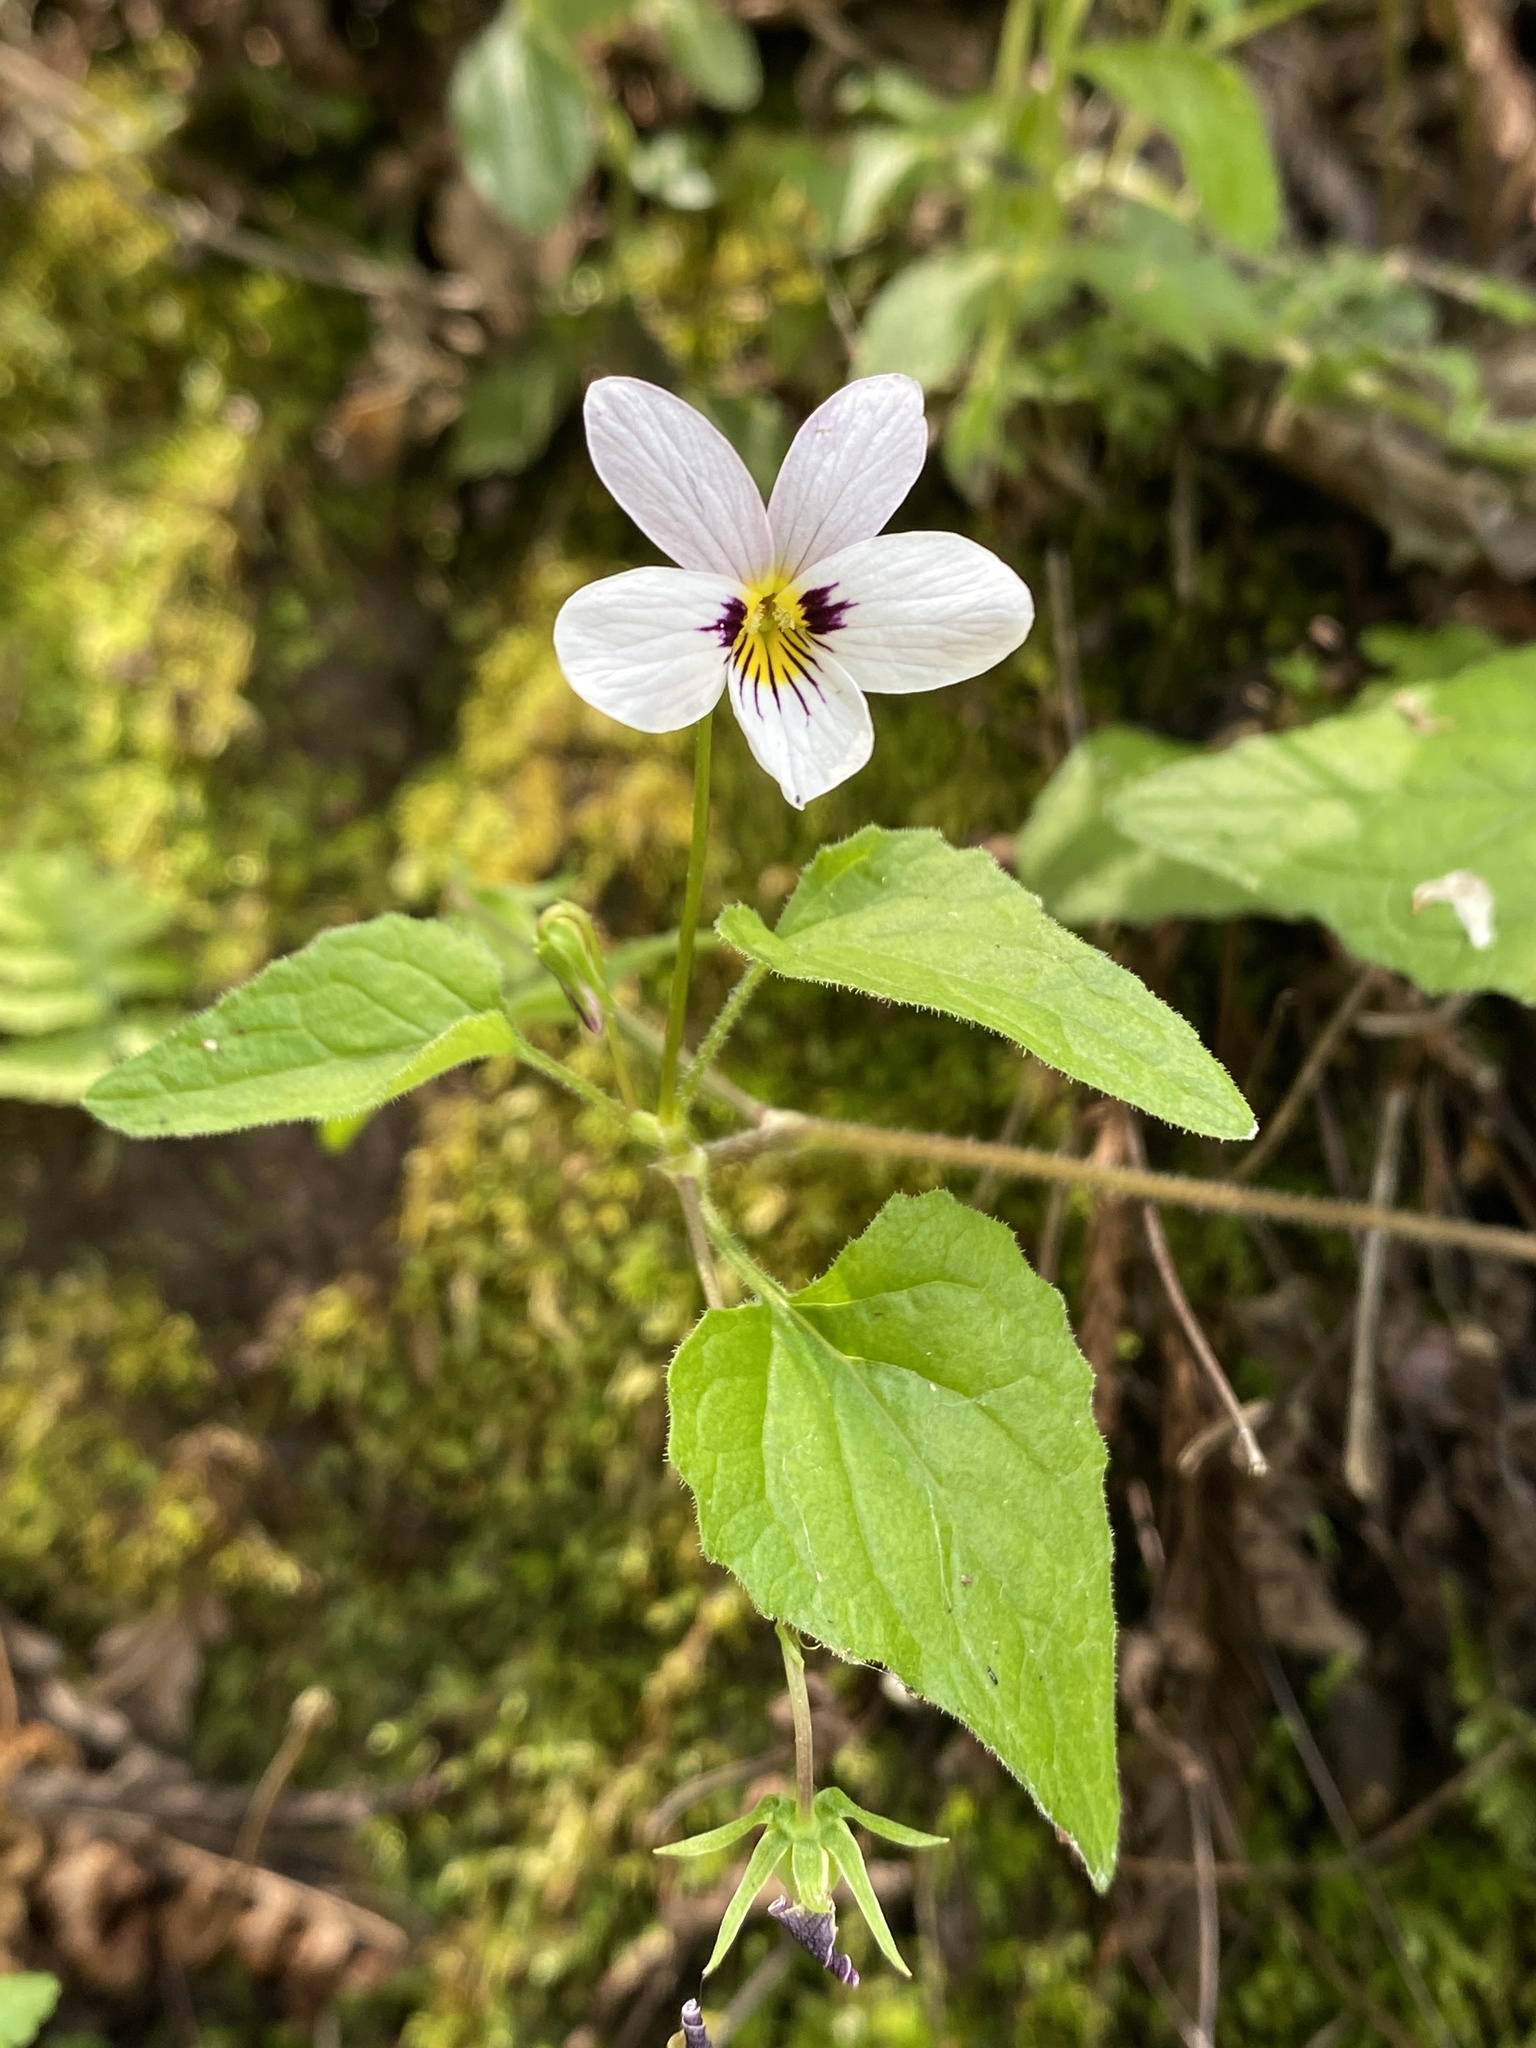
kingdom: Plantae
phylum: Tracheophyta
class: Magnoliopsida
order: Malpighiales
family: Violaceae
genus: Viola
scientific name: Viola ocellata
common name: Western heart's ease
